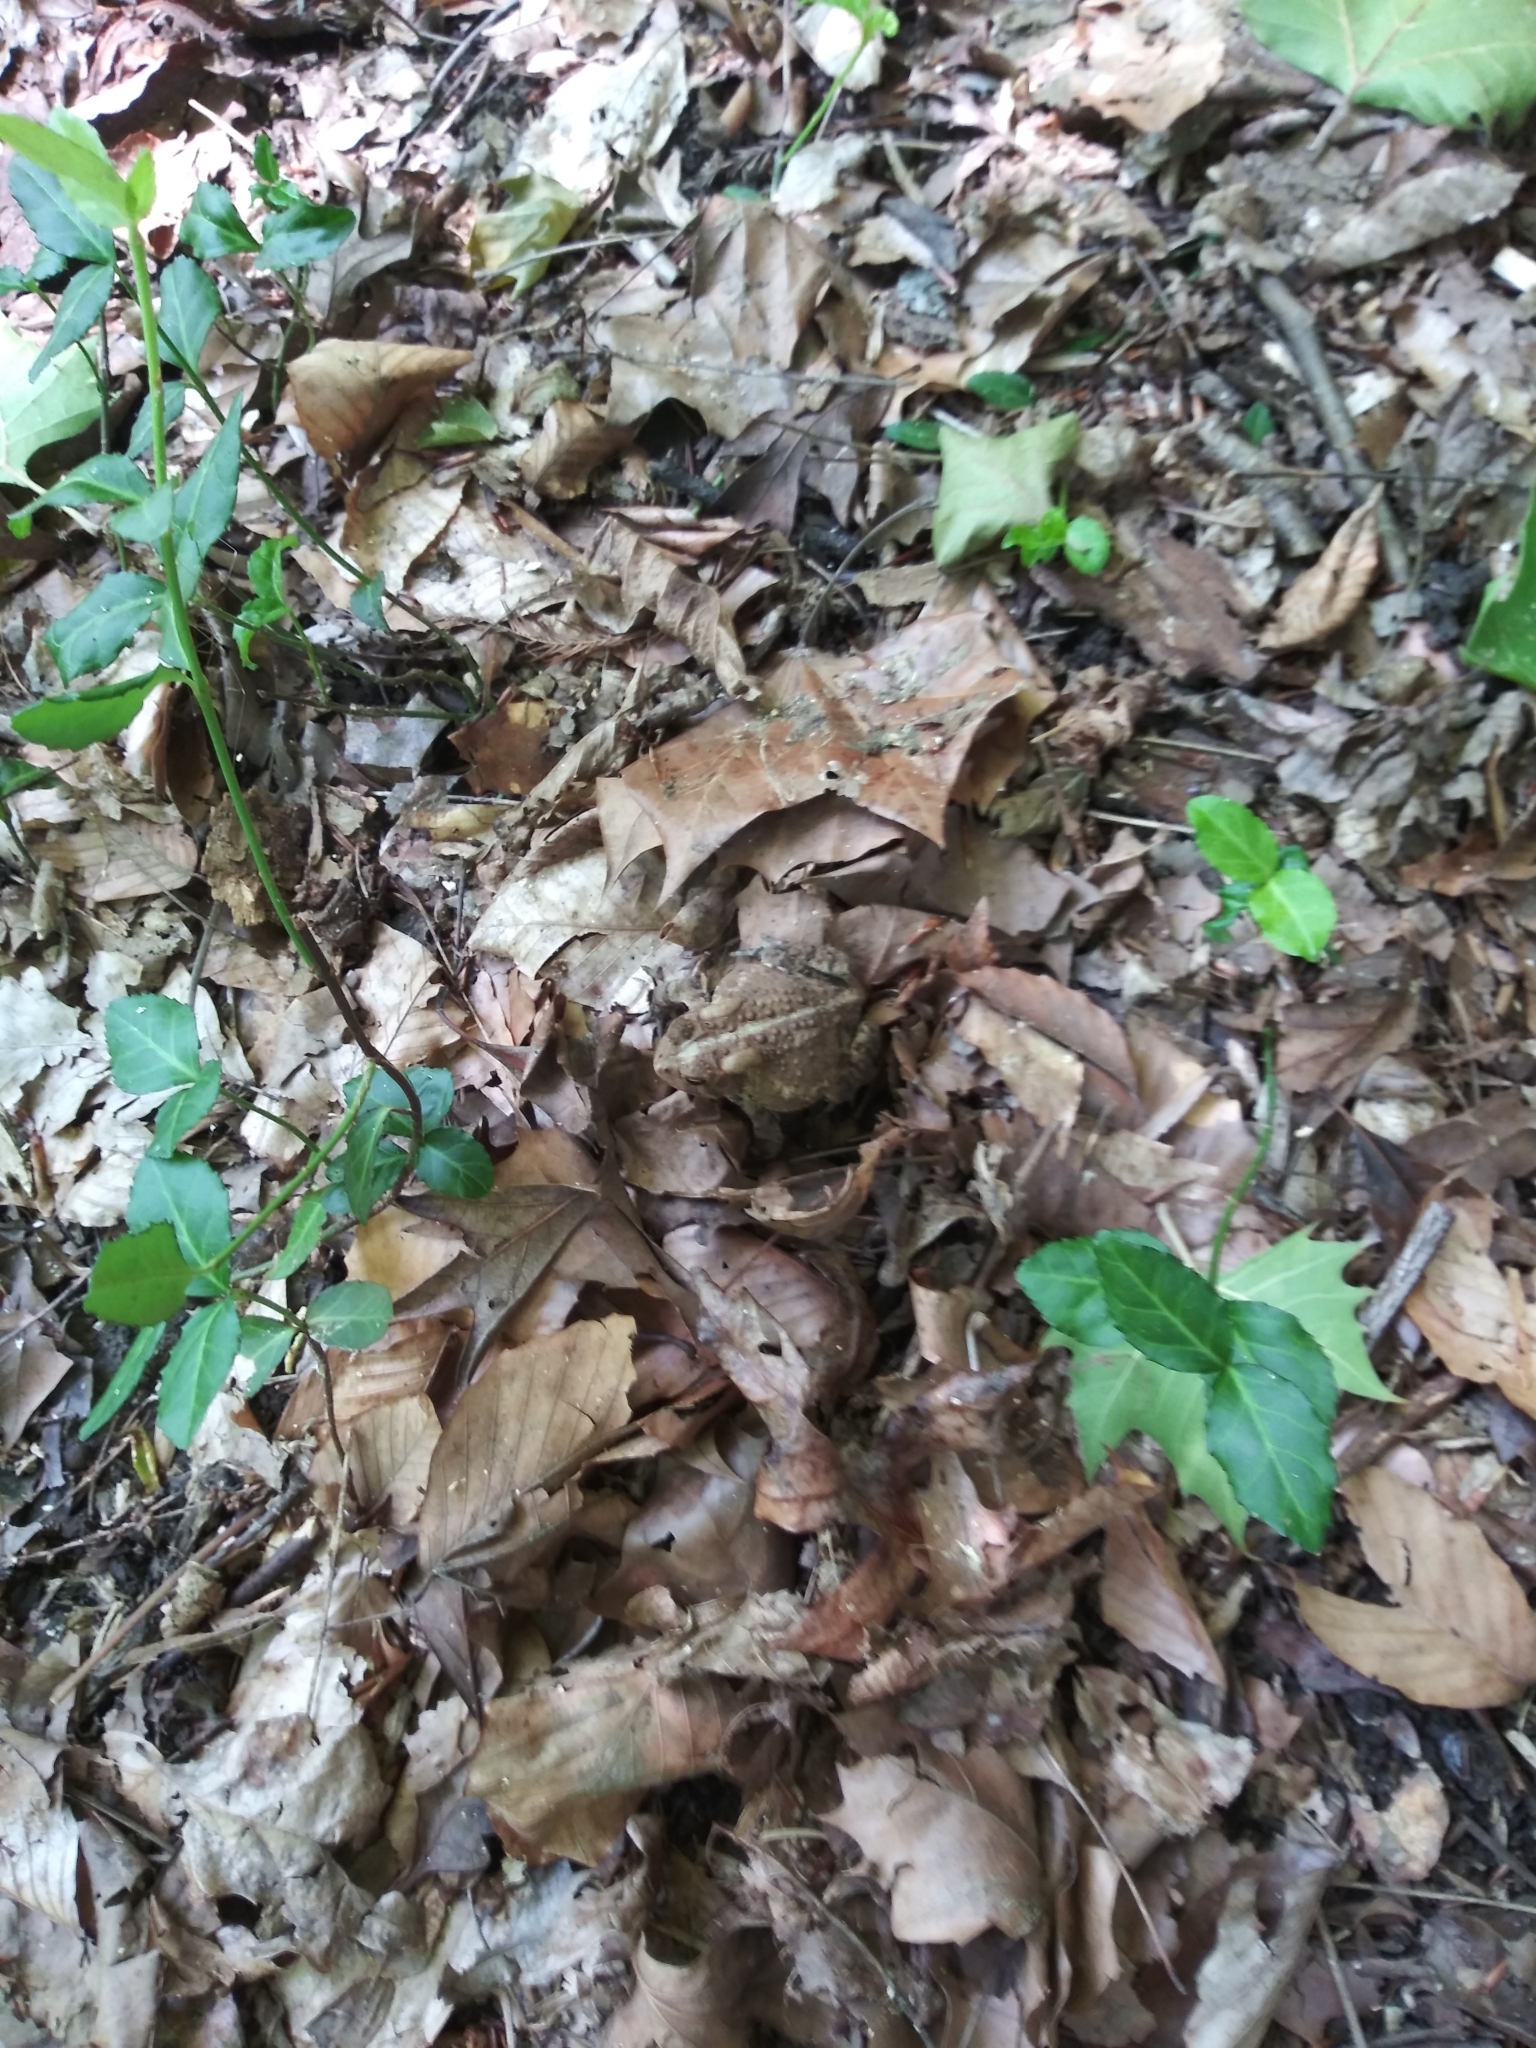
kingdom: Animalia
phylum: Chordata
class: Amphibia
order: Anura
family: Bufonidae
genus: Anaxyrus
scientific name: Anaxyrus americanus
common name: American toad
